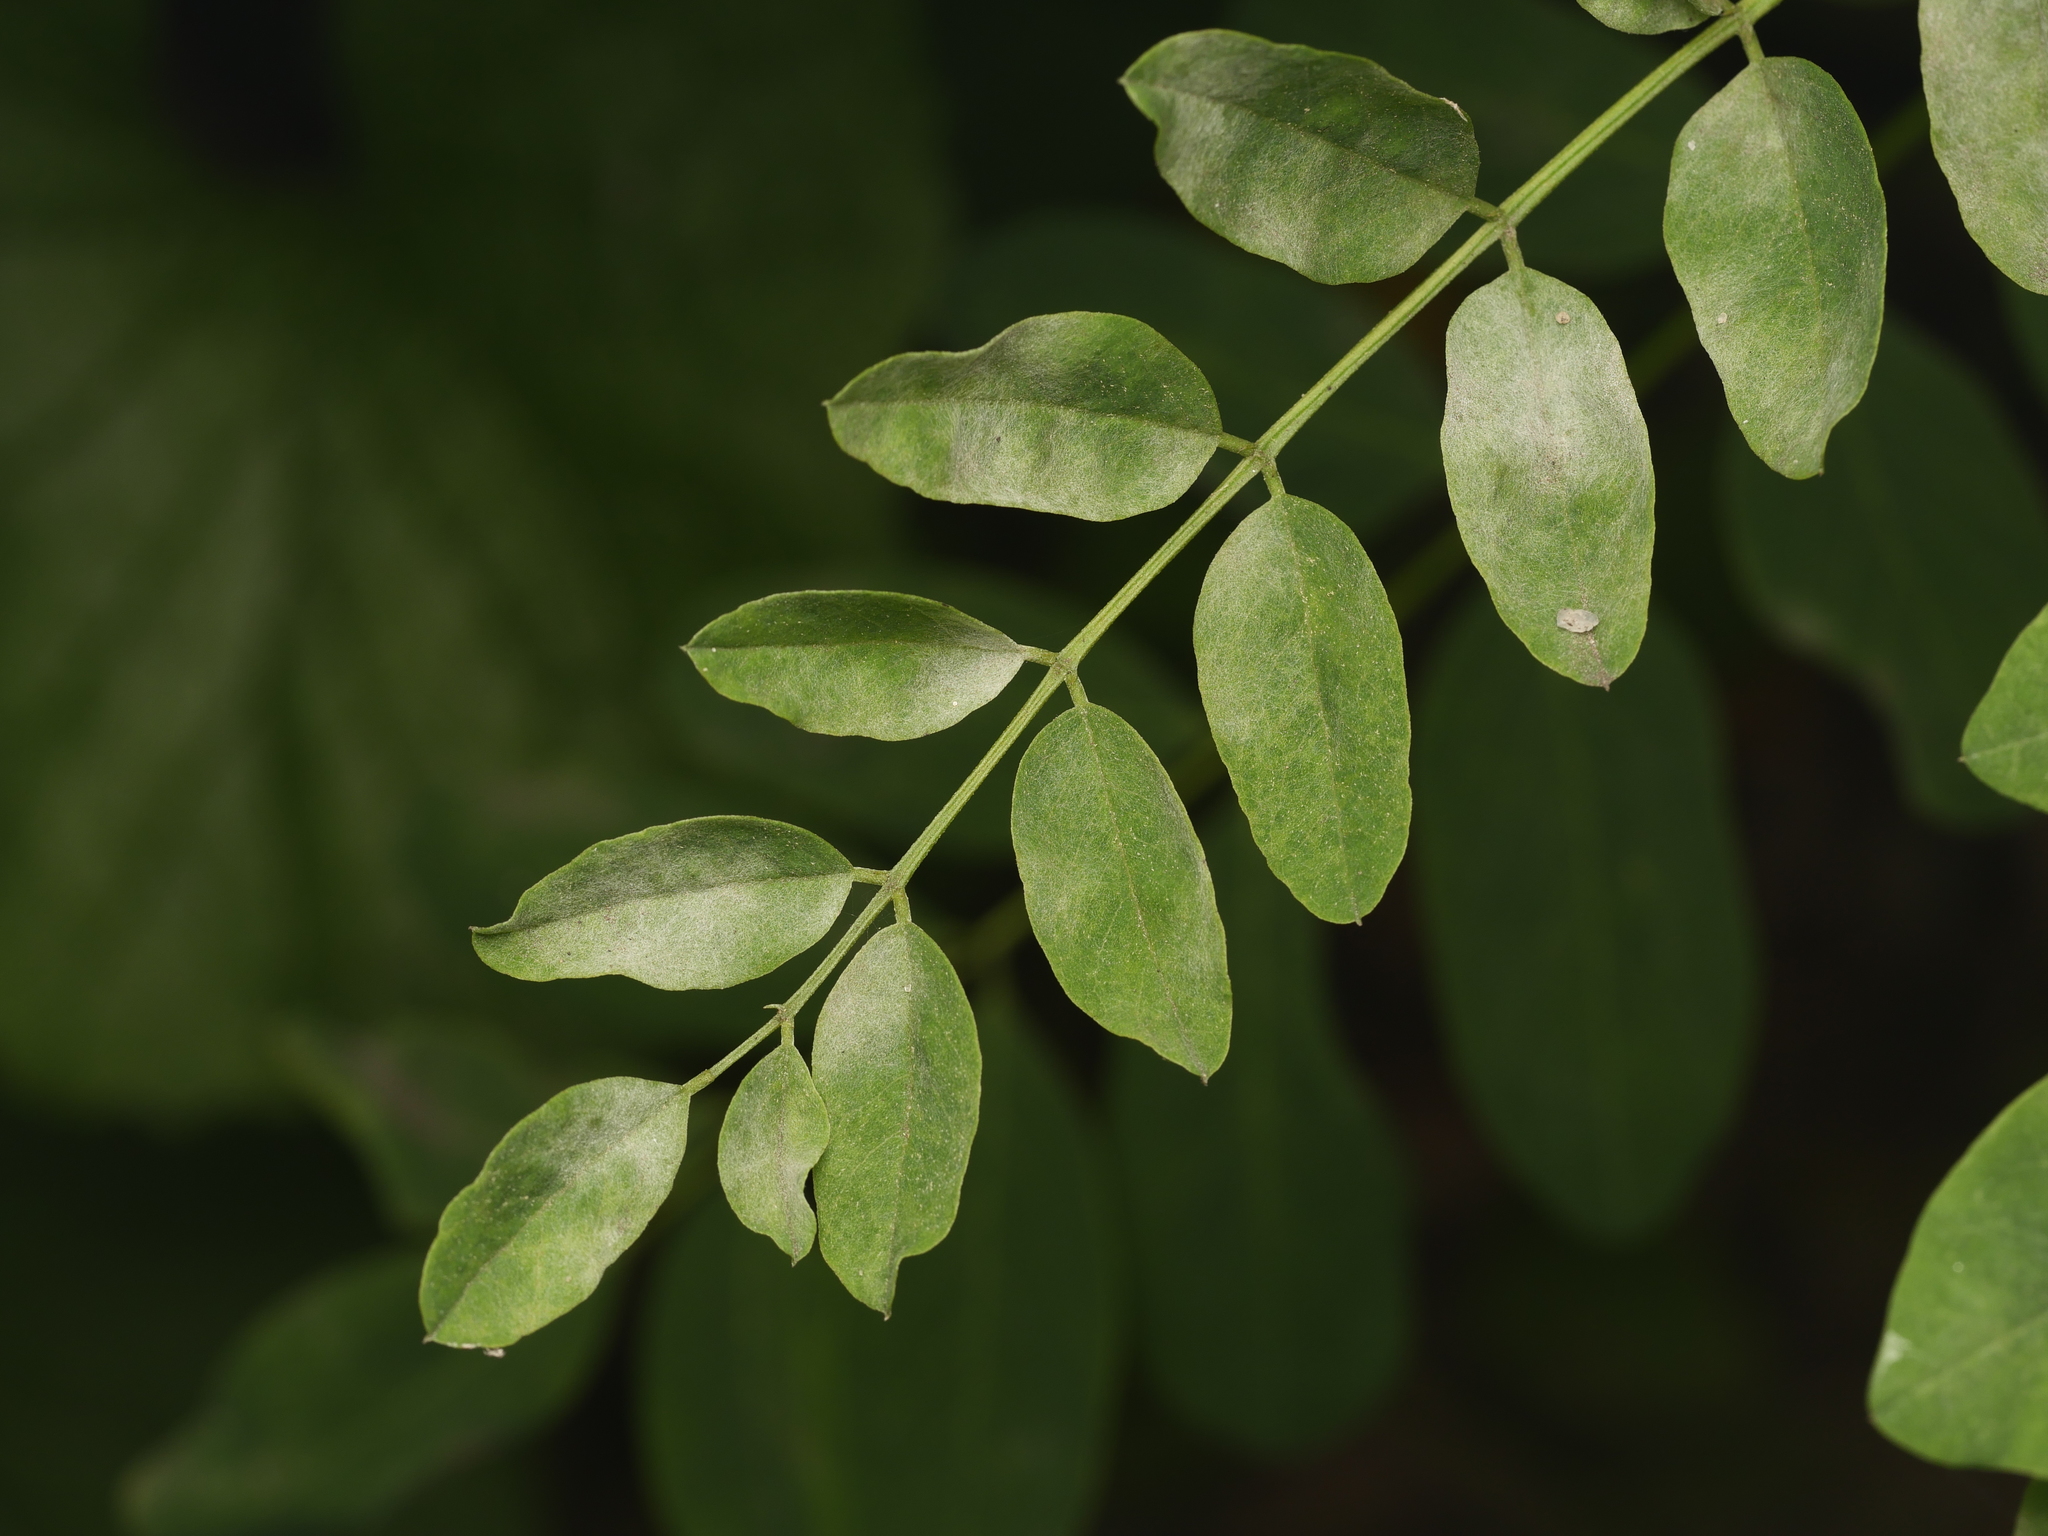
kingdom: Plantae
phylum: Tracheophyta
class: Magnoliopsida
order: Fabales
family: Fabaceae
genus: Robinia
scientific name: Robinia pseudoacacia
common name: Black locust
